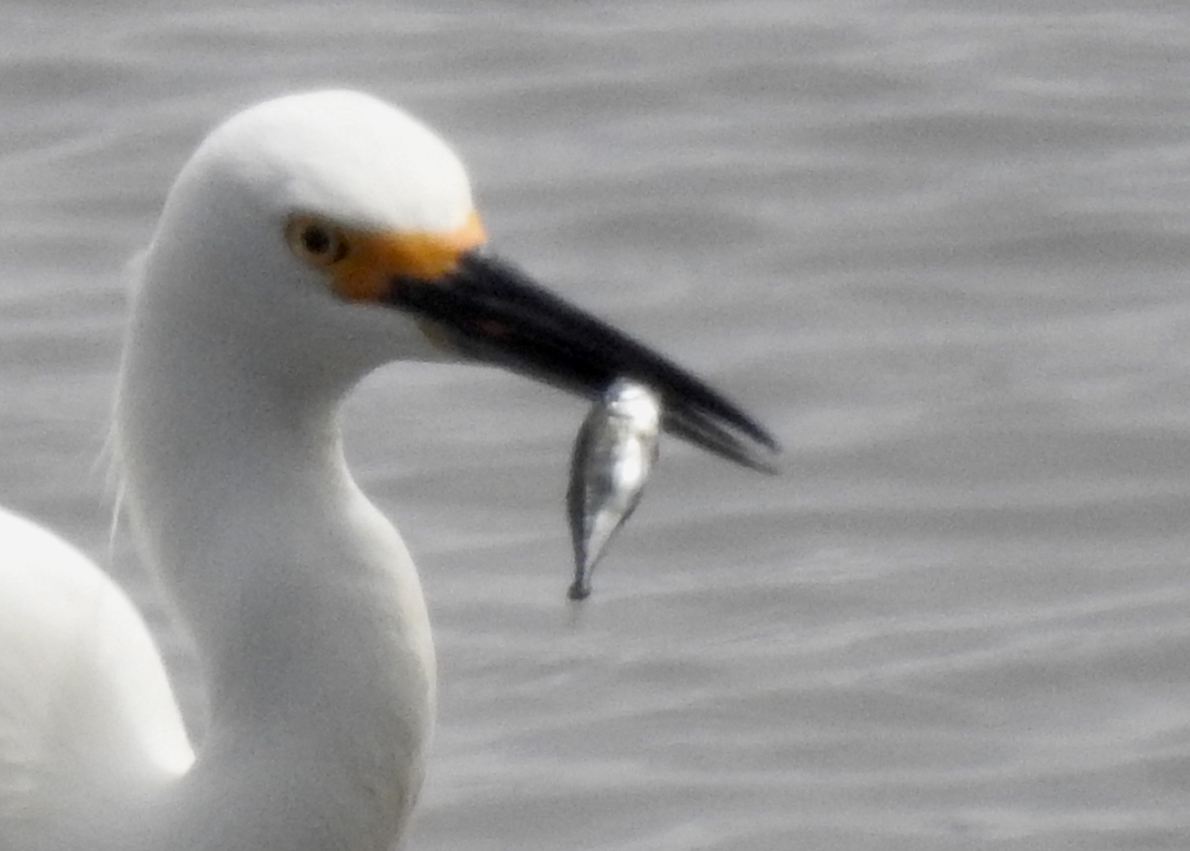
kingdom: Animalia
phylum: Chordata
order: Gasterosteiformes
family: Gasterosteidae
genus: Gasterosteus
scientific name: Gasterosteus aculeatus
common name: Three-spined stickleback
